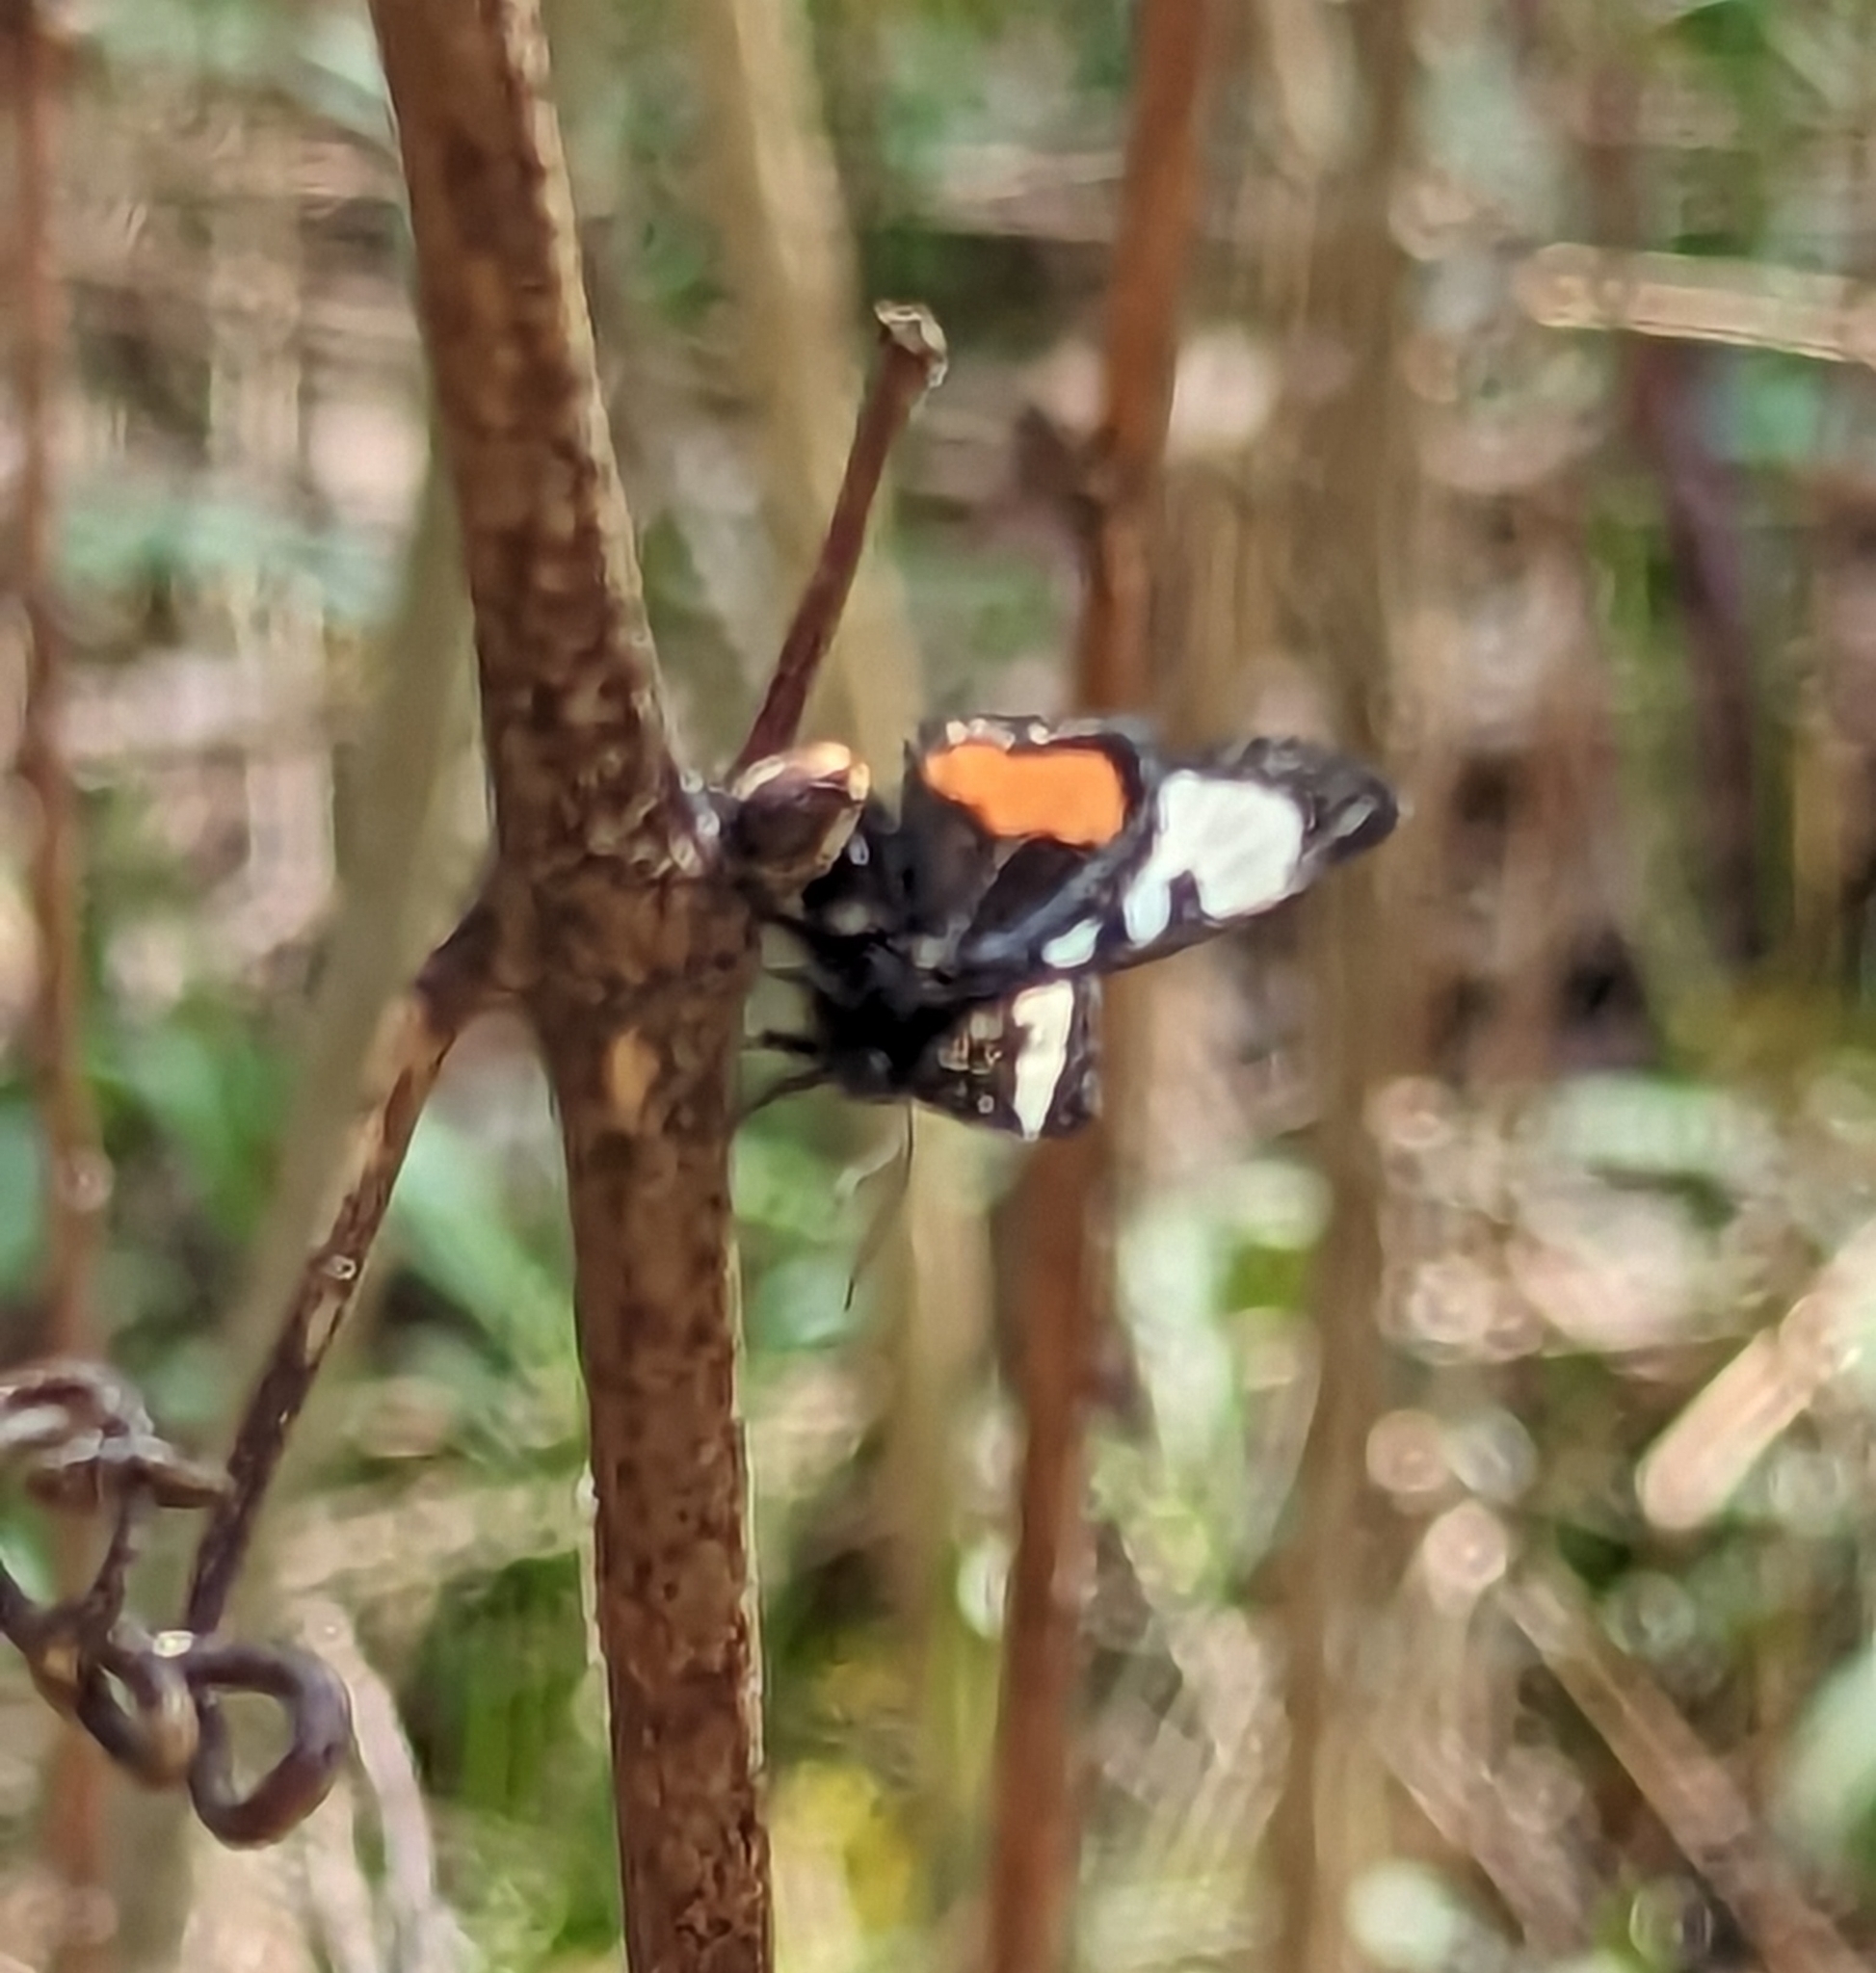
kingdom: Animalia
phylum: Arthropoda
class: Insecta
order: Lepidoptera
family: Noctuidae
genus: Psychomorpha
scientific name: Psychomorpha epimenis
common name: Grapevine epimenis moth
